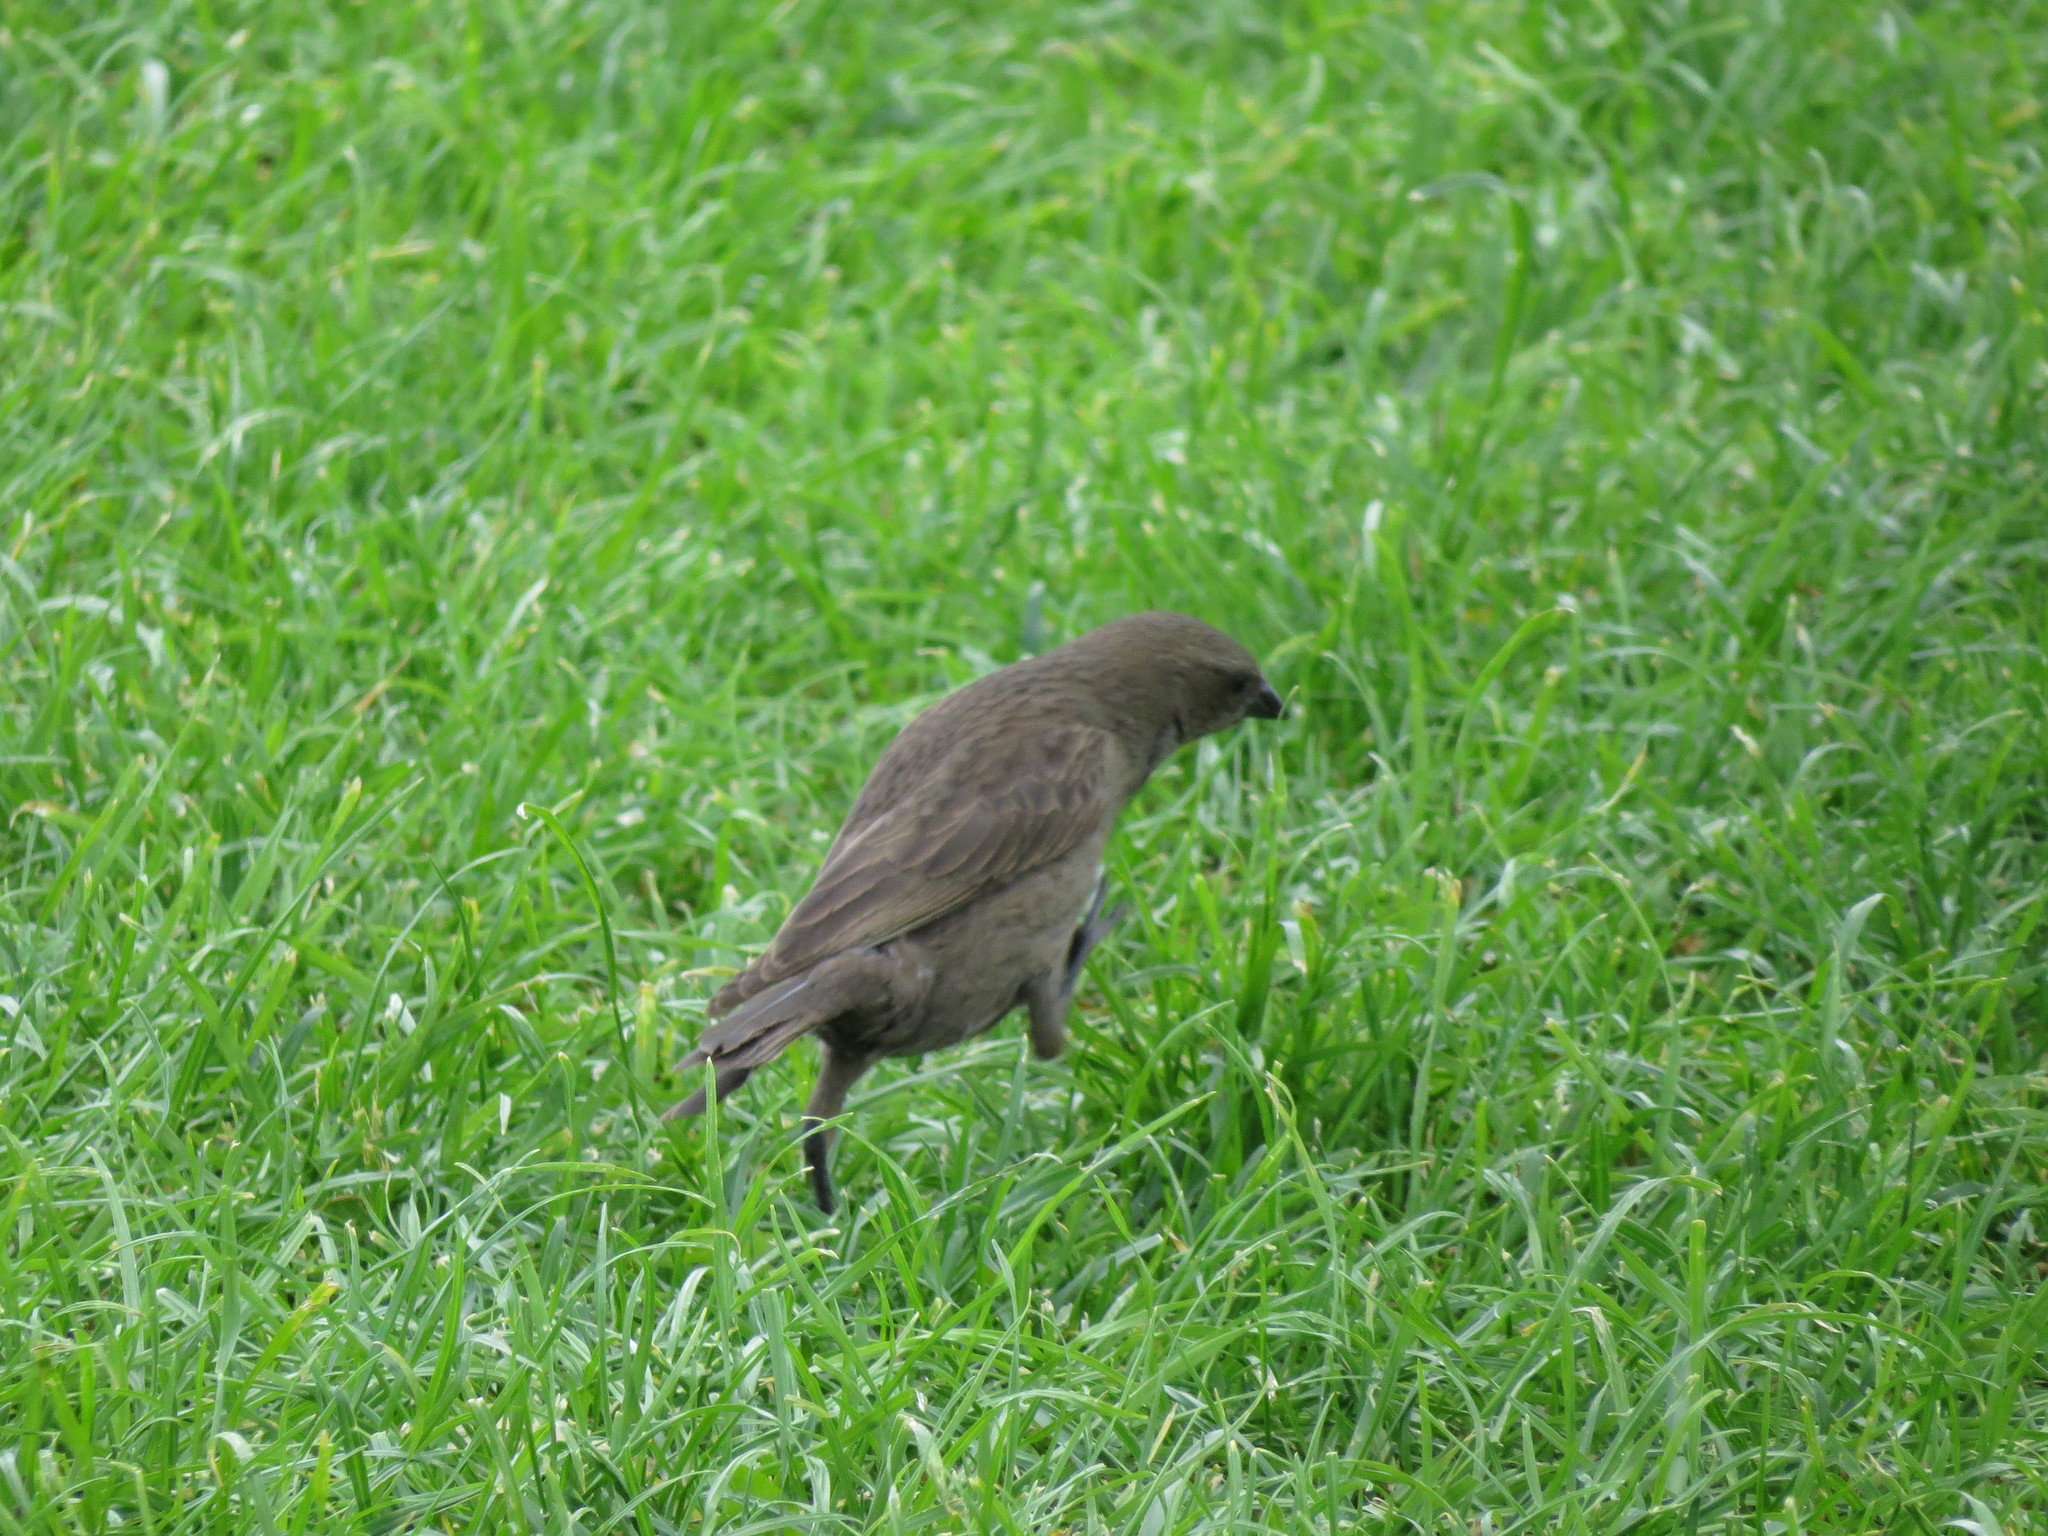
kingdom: Animalia
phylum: Chordata
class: Aves
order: Passeriformes
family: Icteridae
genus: Molothrus
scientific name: Molothrus bonariensis
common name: Shiny cowbird
